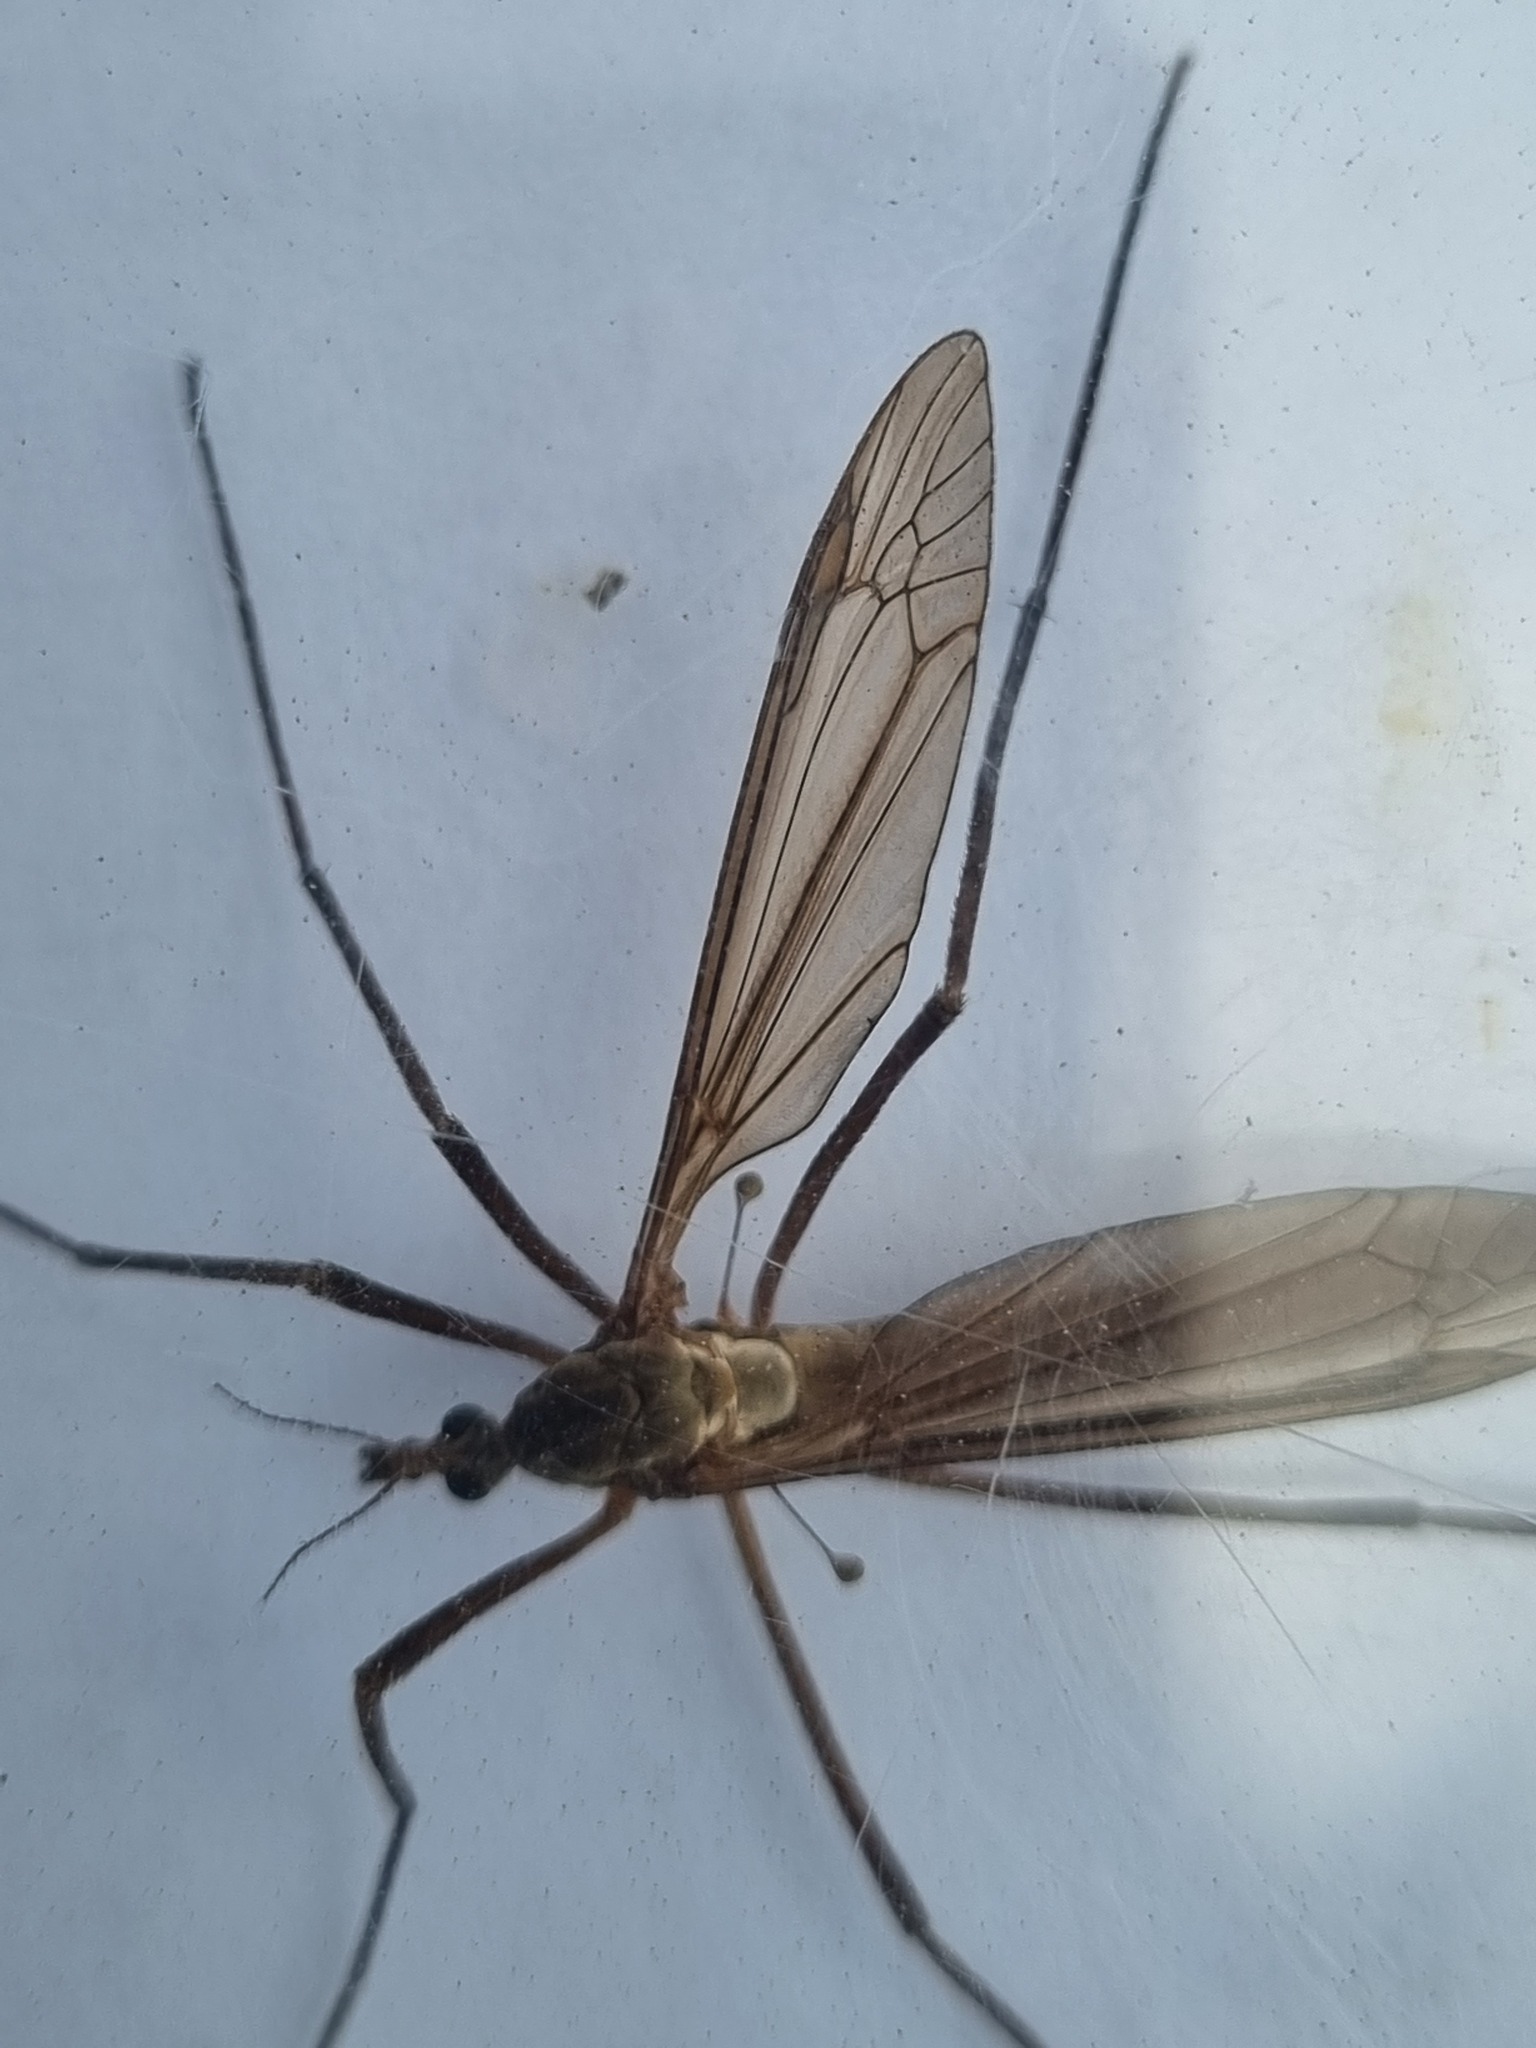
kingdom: Animalia
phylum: Arthropoda
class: Insecta
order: Diptera
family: Tipulidae
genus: Tipula
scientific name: Tipula paludosa
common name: European cranefly
